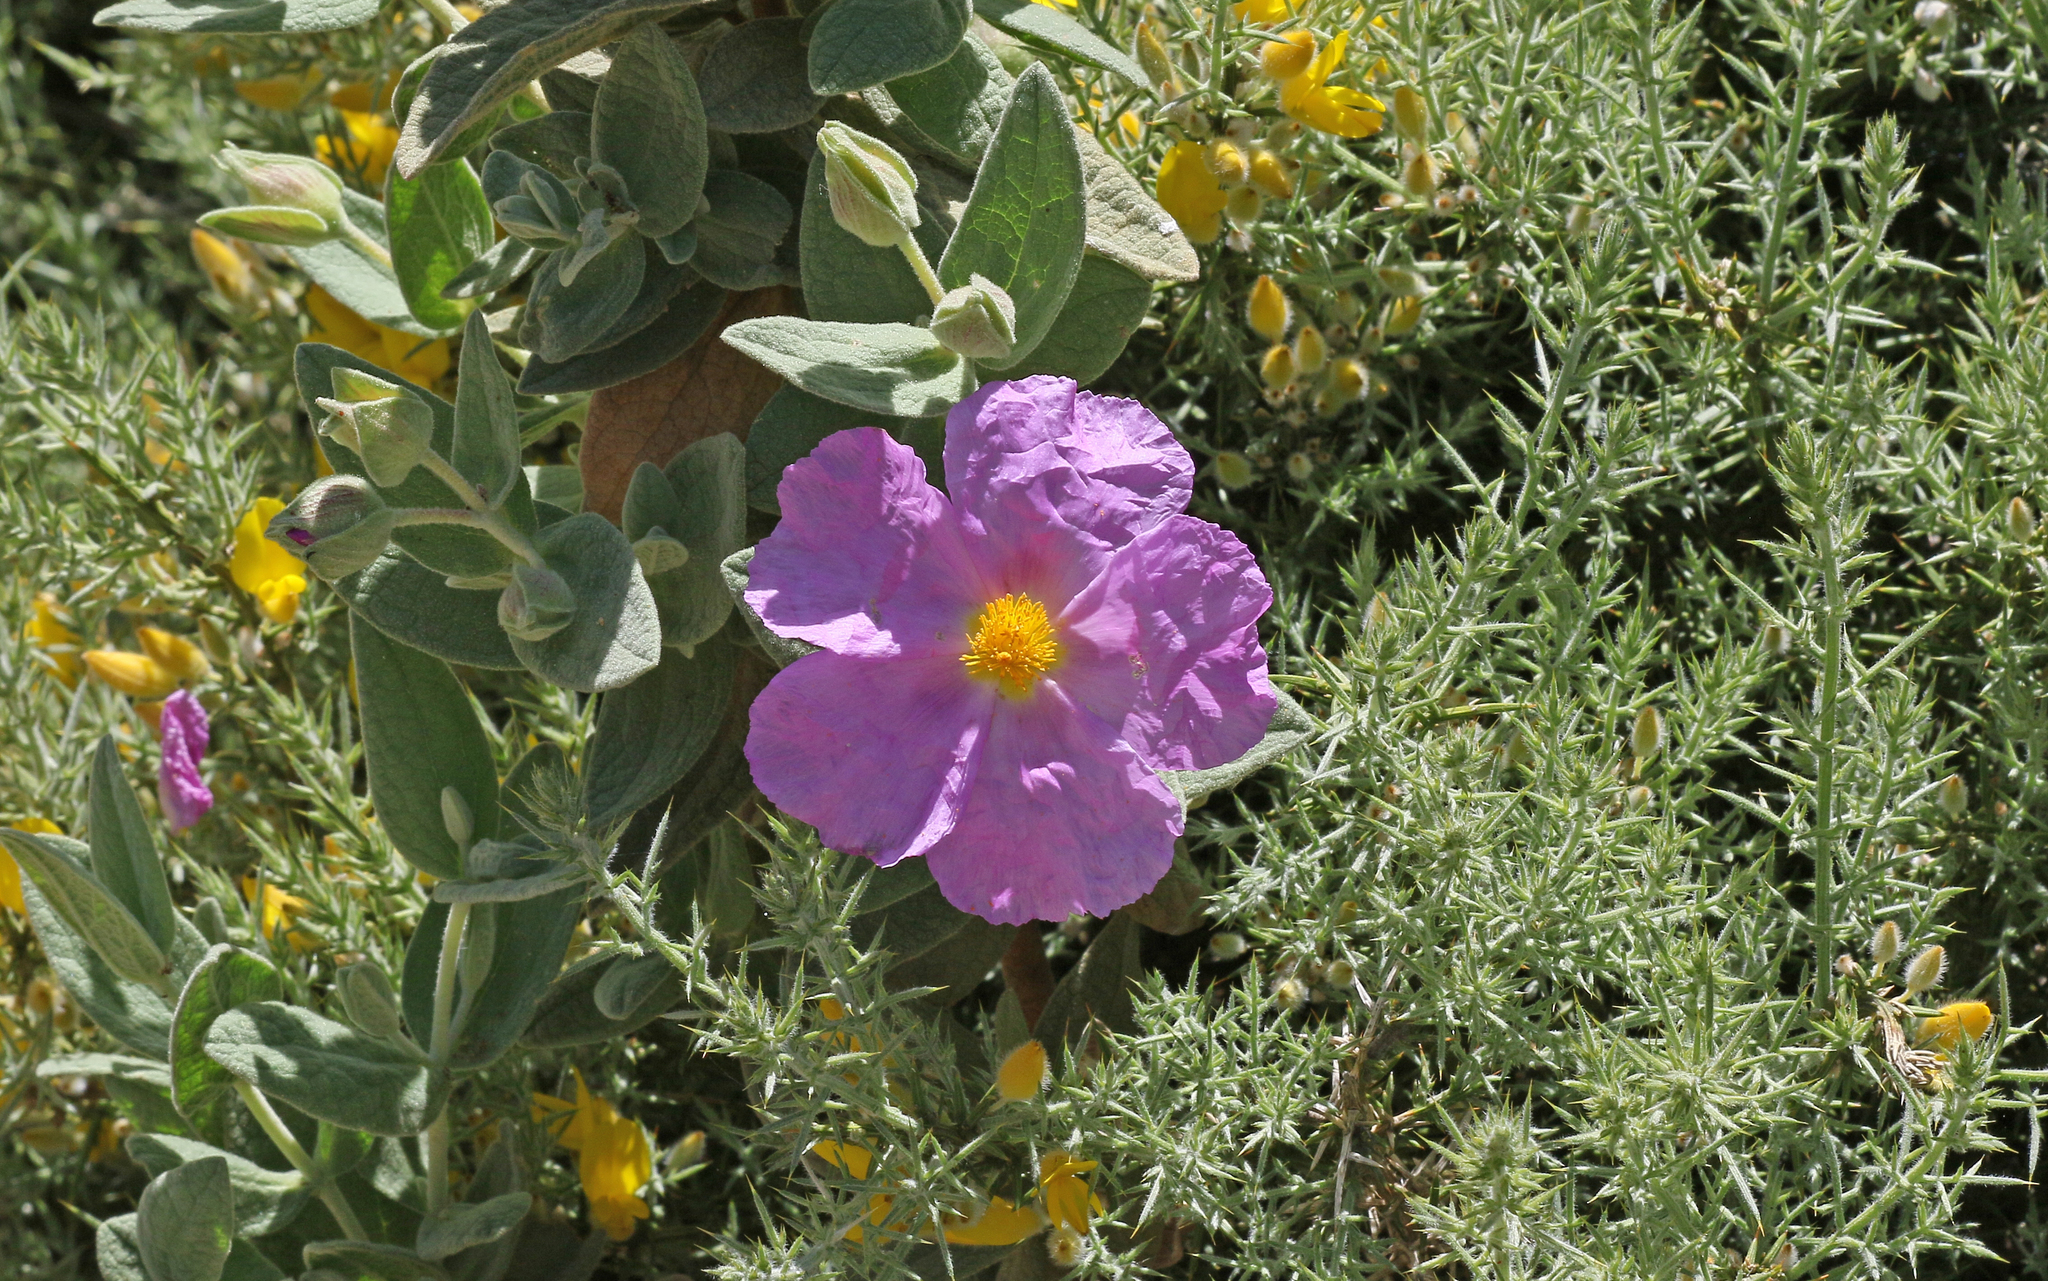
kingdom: Plantae
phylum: Tracheophyta
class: Magnoliopsida
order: Malvales
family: Cistaceae
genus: Cistus
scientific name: Cistus albidus
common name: White-leaf rock-rose
